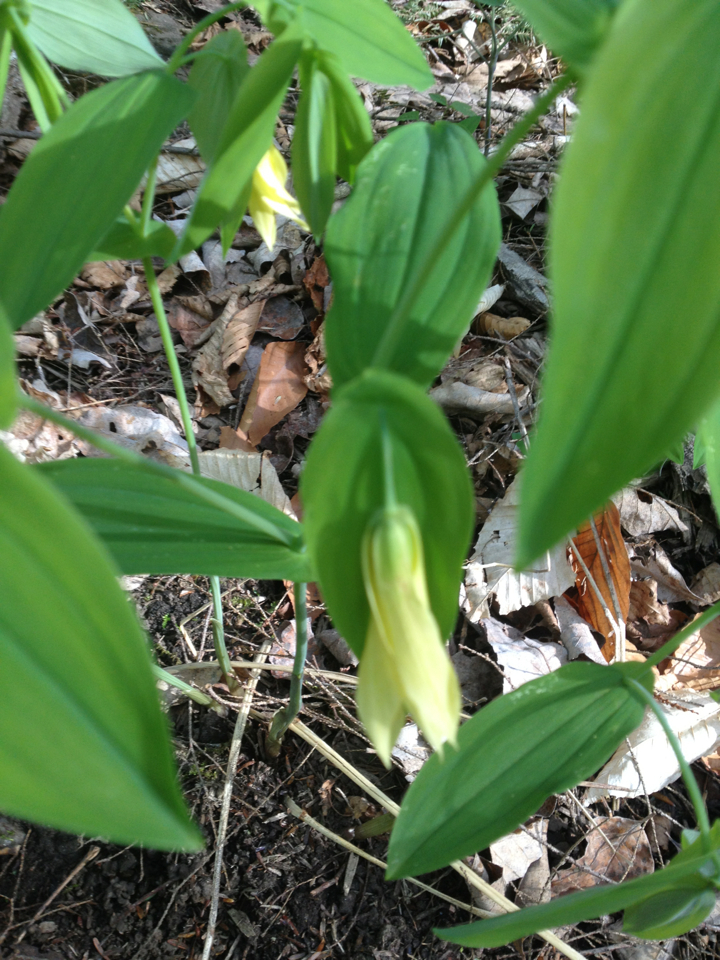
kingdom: Plantae
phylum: Tracheophyta
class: Liliopsida
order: Liliales
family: Colchicaceae
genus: Uvularia
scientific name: Uvularia grandiflora
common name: Bellwort
